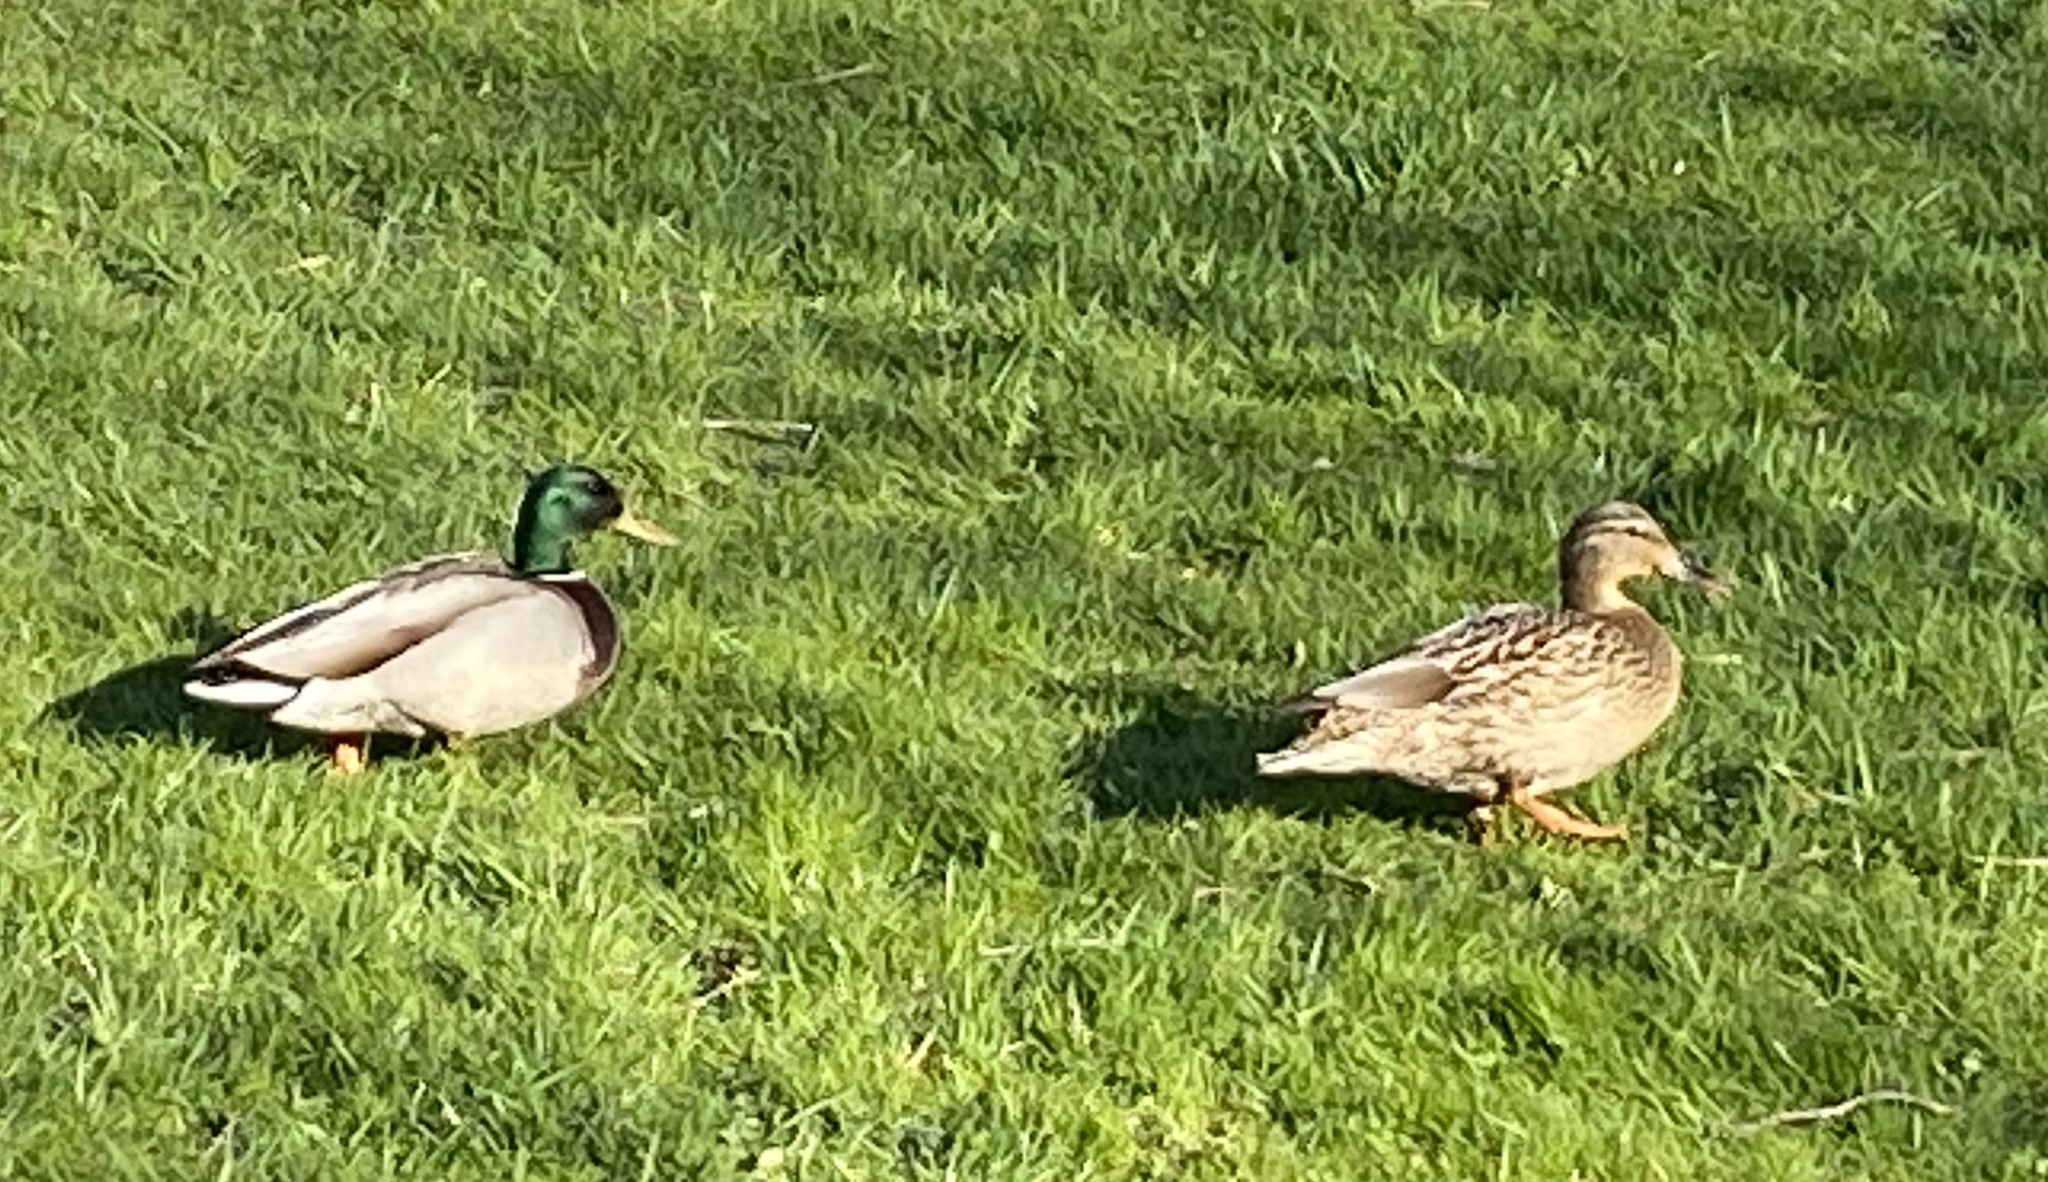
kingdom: Animalia
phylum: Chordata
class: Aves
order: Anseriformes
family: Anatidae
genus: Anas
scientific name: Anas platyrhynchos
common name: Mallard
